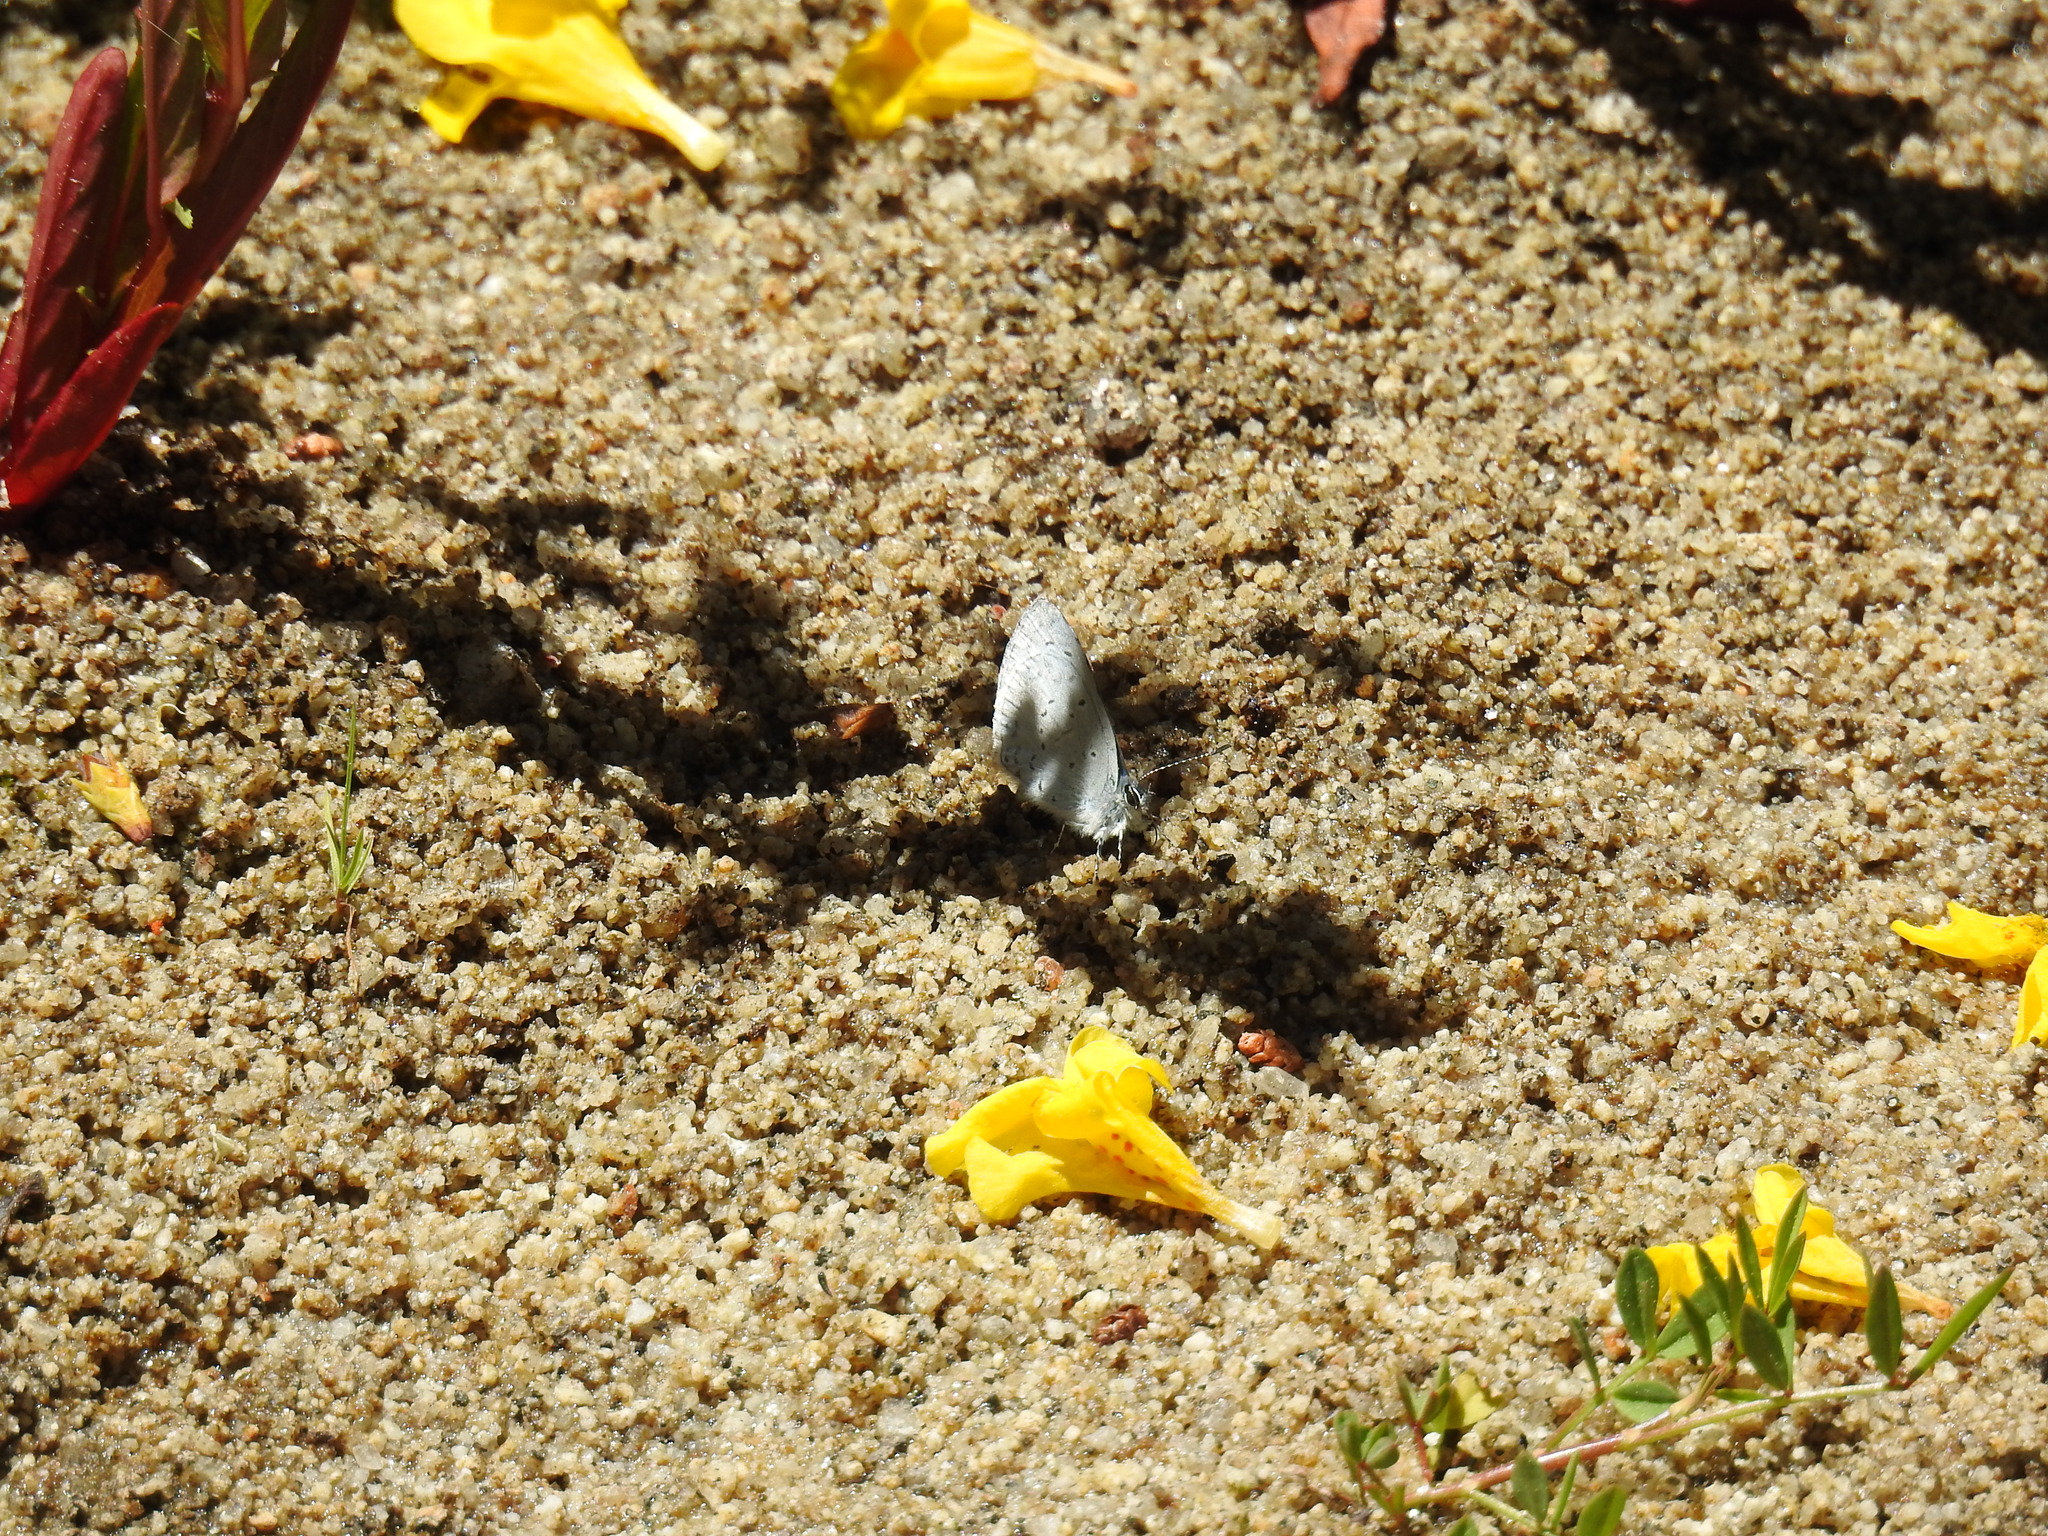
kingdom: Animalia
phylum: Arthropoda
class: Insecta
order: Lepidoptera
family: Lycaenidae
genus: Celastrina
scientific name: Celastrina ladon
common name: Spring azure
